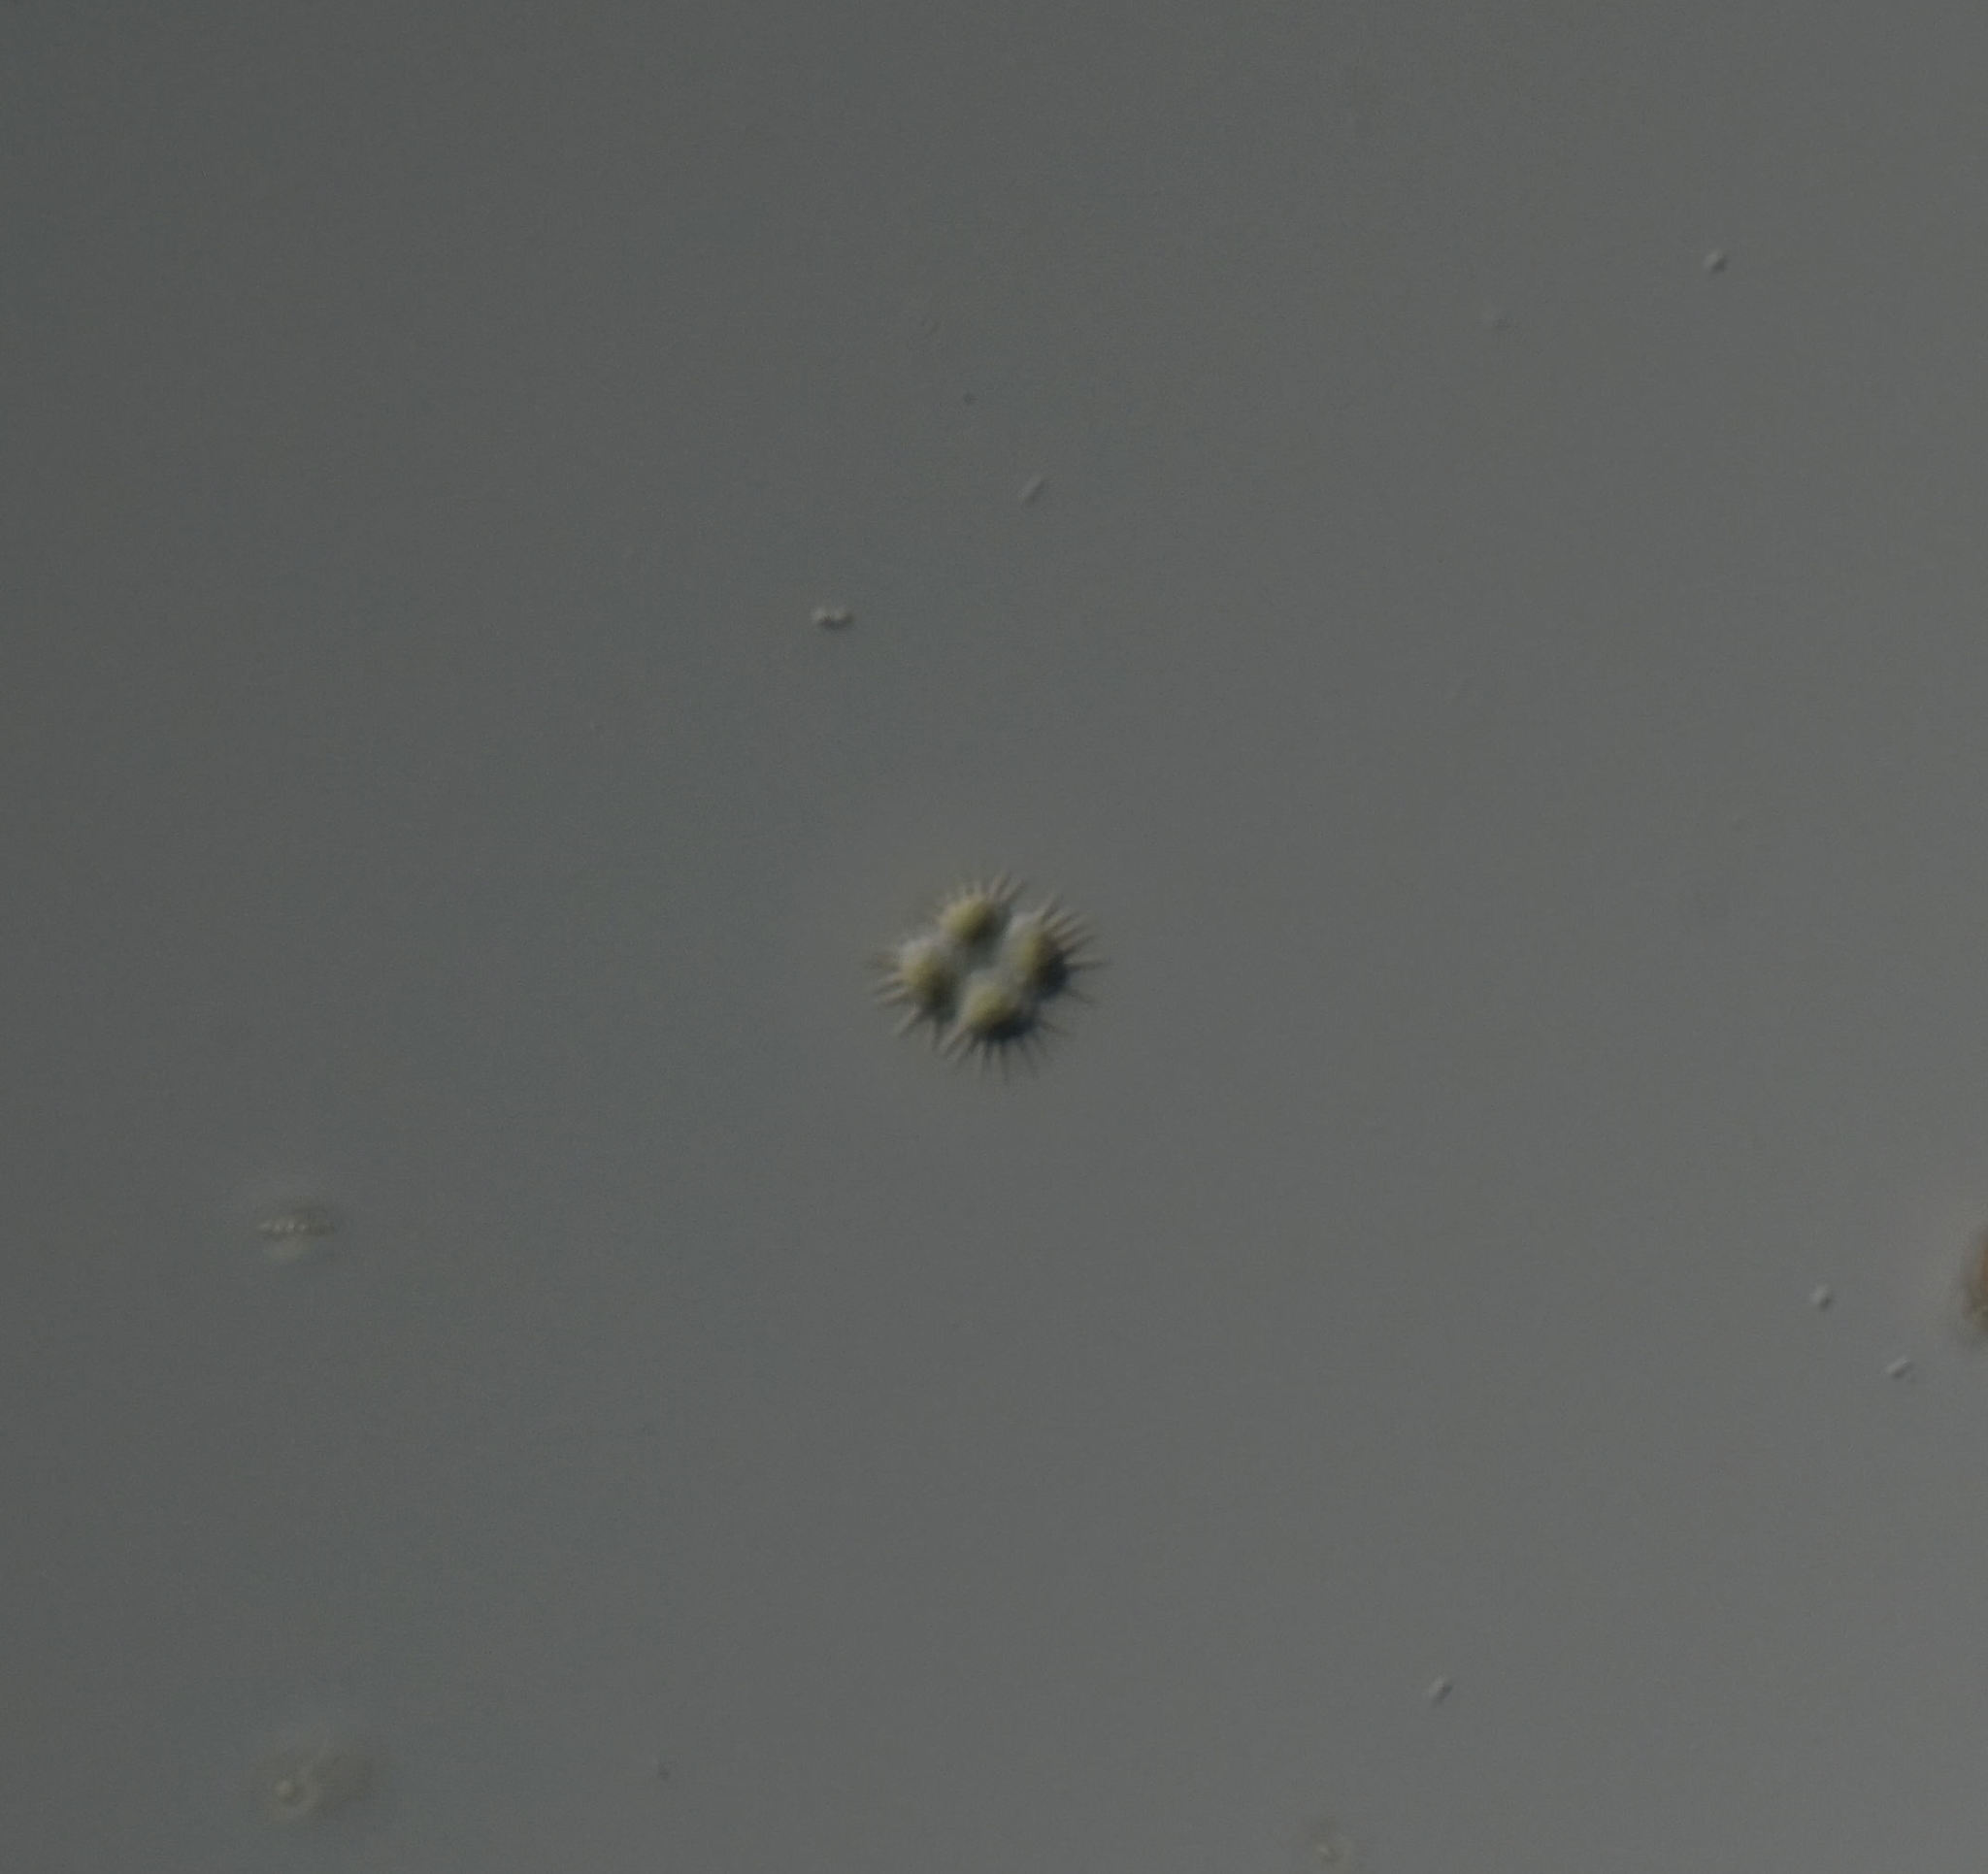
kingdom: Plantae
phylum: Chlorophyta
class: Chlorophyceae
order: Sphaeropleales
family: Scenedesmaceae
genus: Tetrastrum
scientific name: Tetrastrum staurogeniiforme
